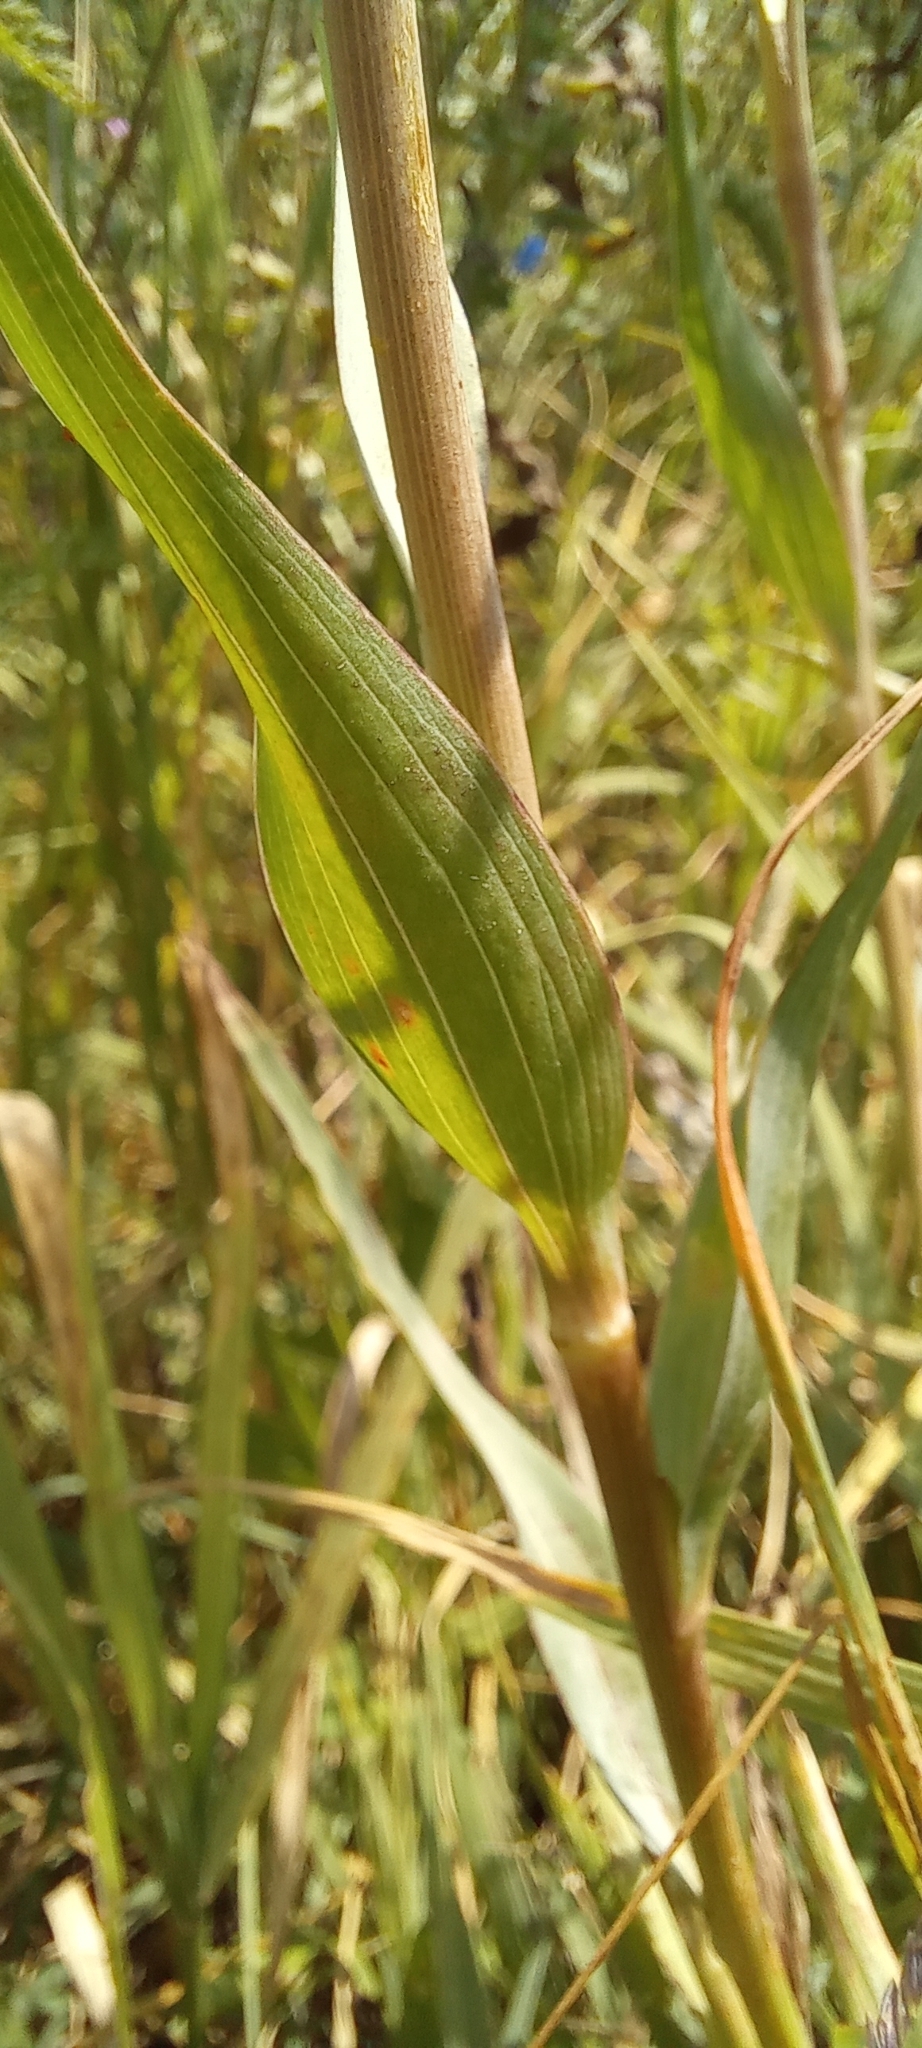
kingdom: Plantae
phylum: Tracheophyta
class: Magnoliopsida
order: Asterales
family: Asteraceae
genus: Tragopogon
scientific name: Tragopogon dubius
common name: Yellow salsify
